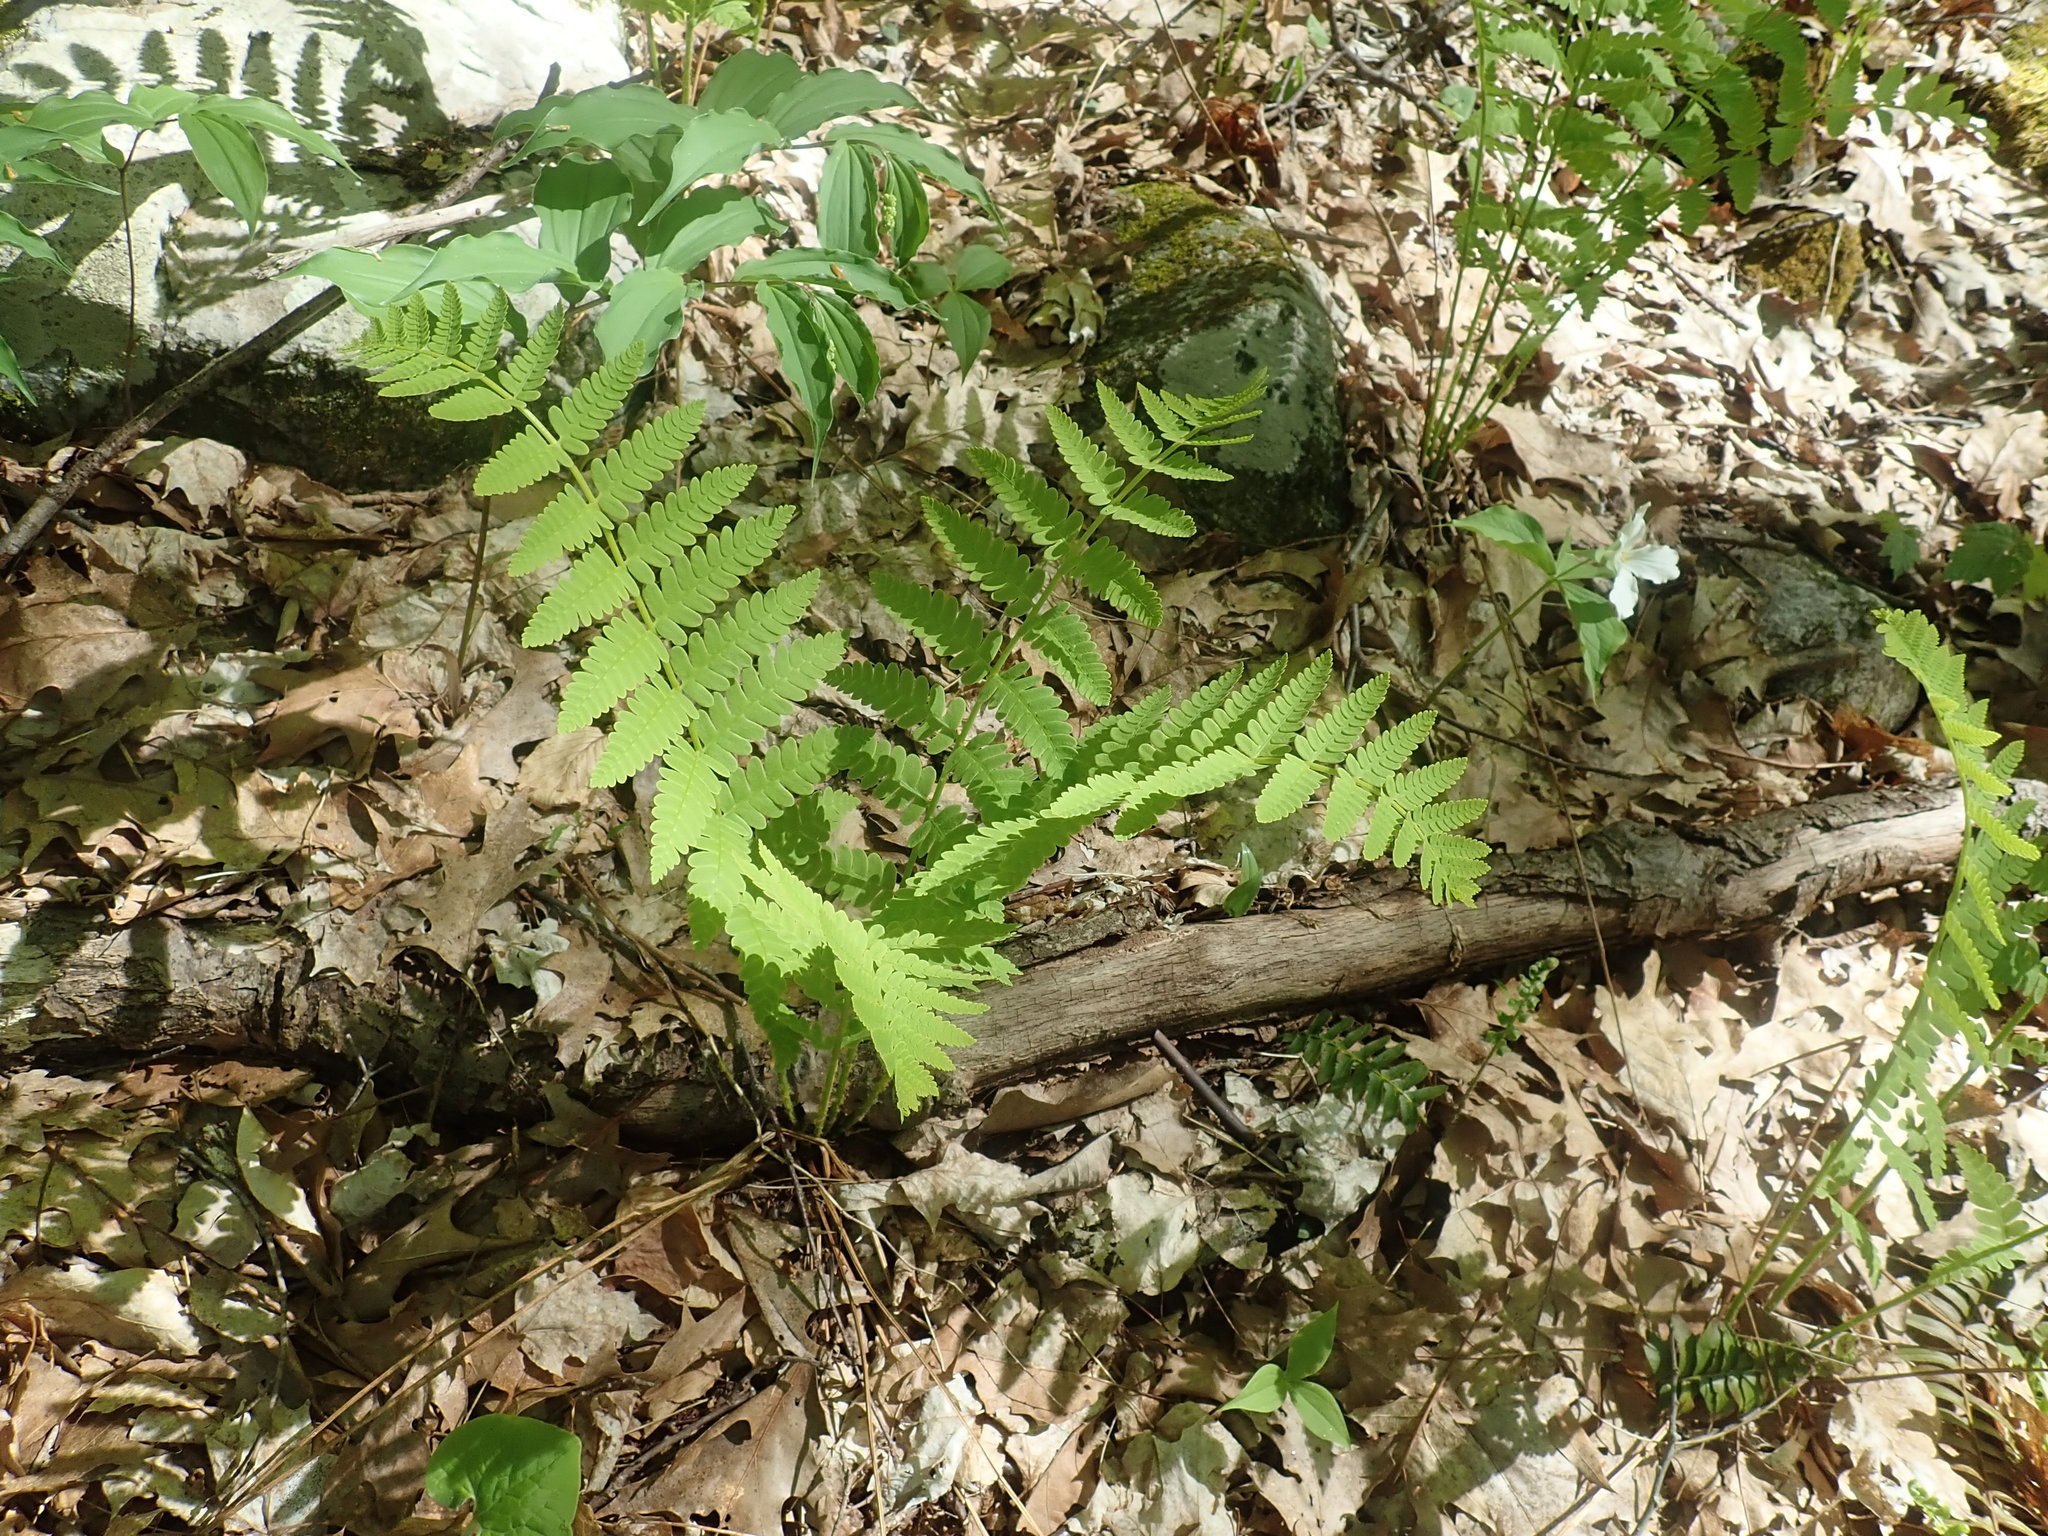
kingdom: Plantae
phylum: Tracheophyta
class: Polypodiopsida
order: Osmundales
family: Osmundaceae
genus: Claytosmunda
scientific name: Claytosmunda claytoniana
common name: Clayton's fern
